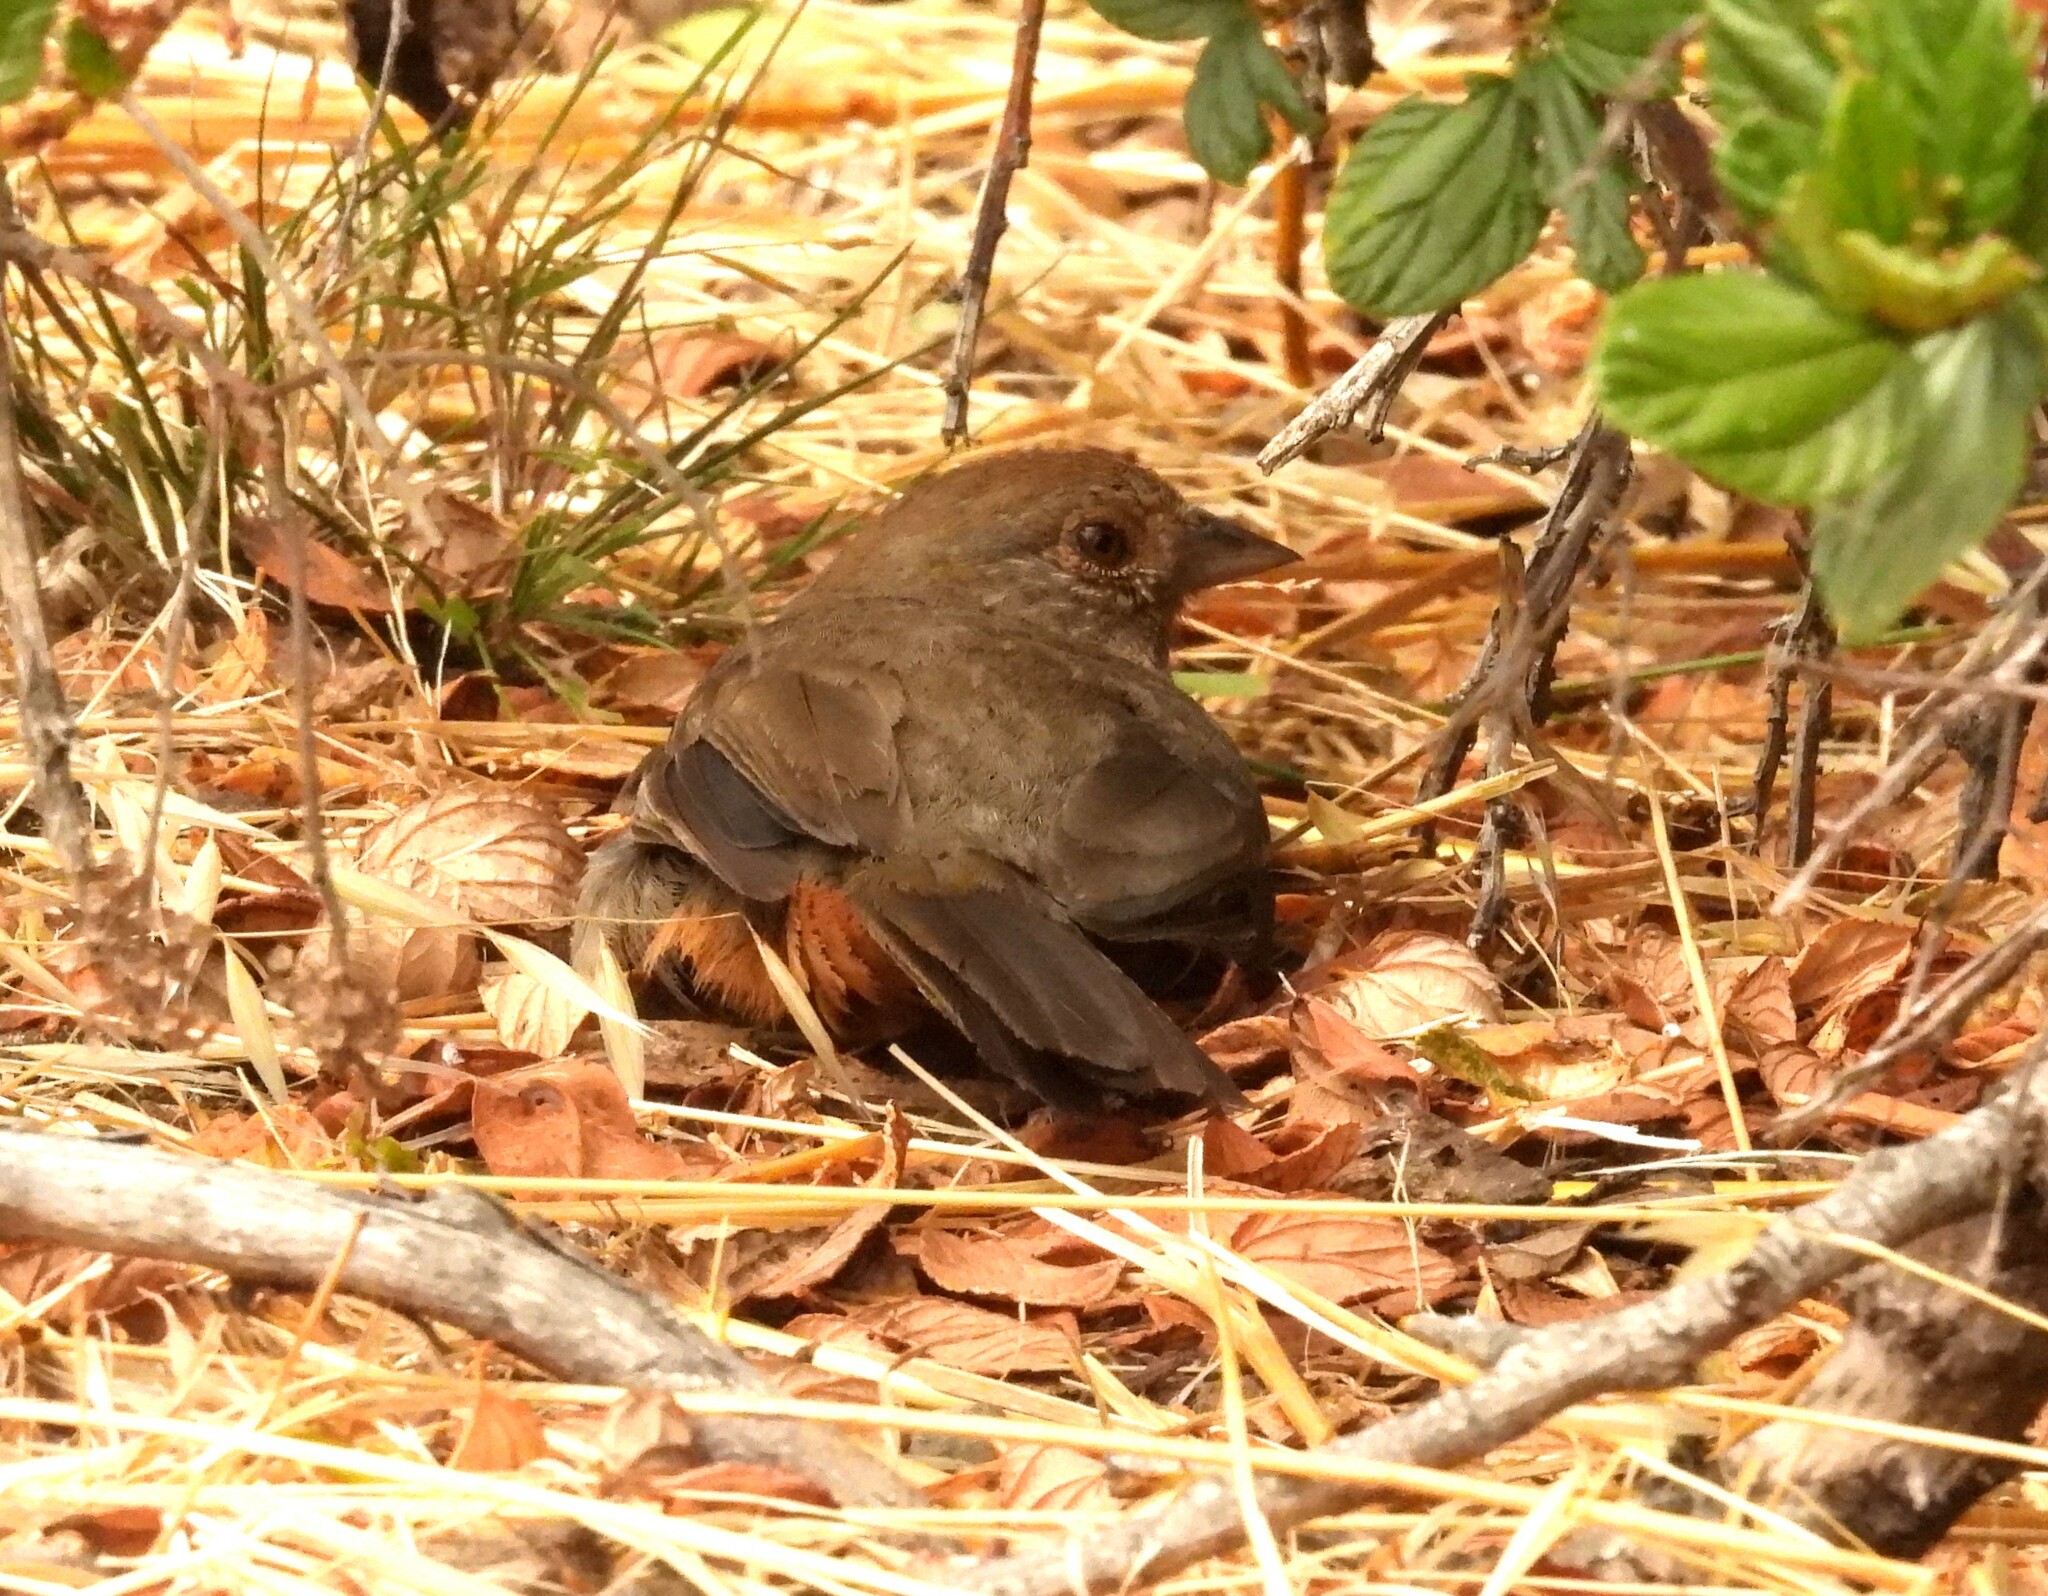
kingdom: Animalia
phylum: Chordata
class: Aves
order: Passeriformes
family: Passerellidae
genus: Melozone
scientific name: Melozone crissalis
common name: California towhee
